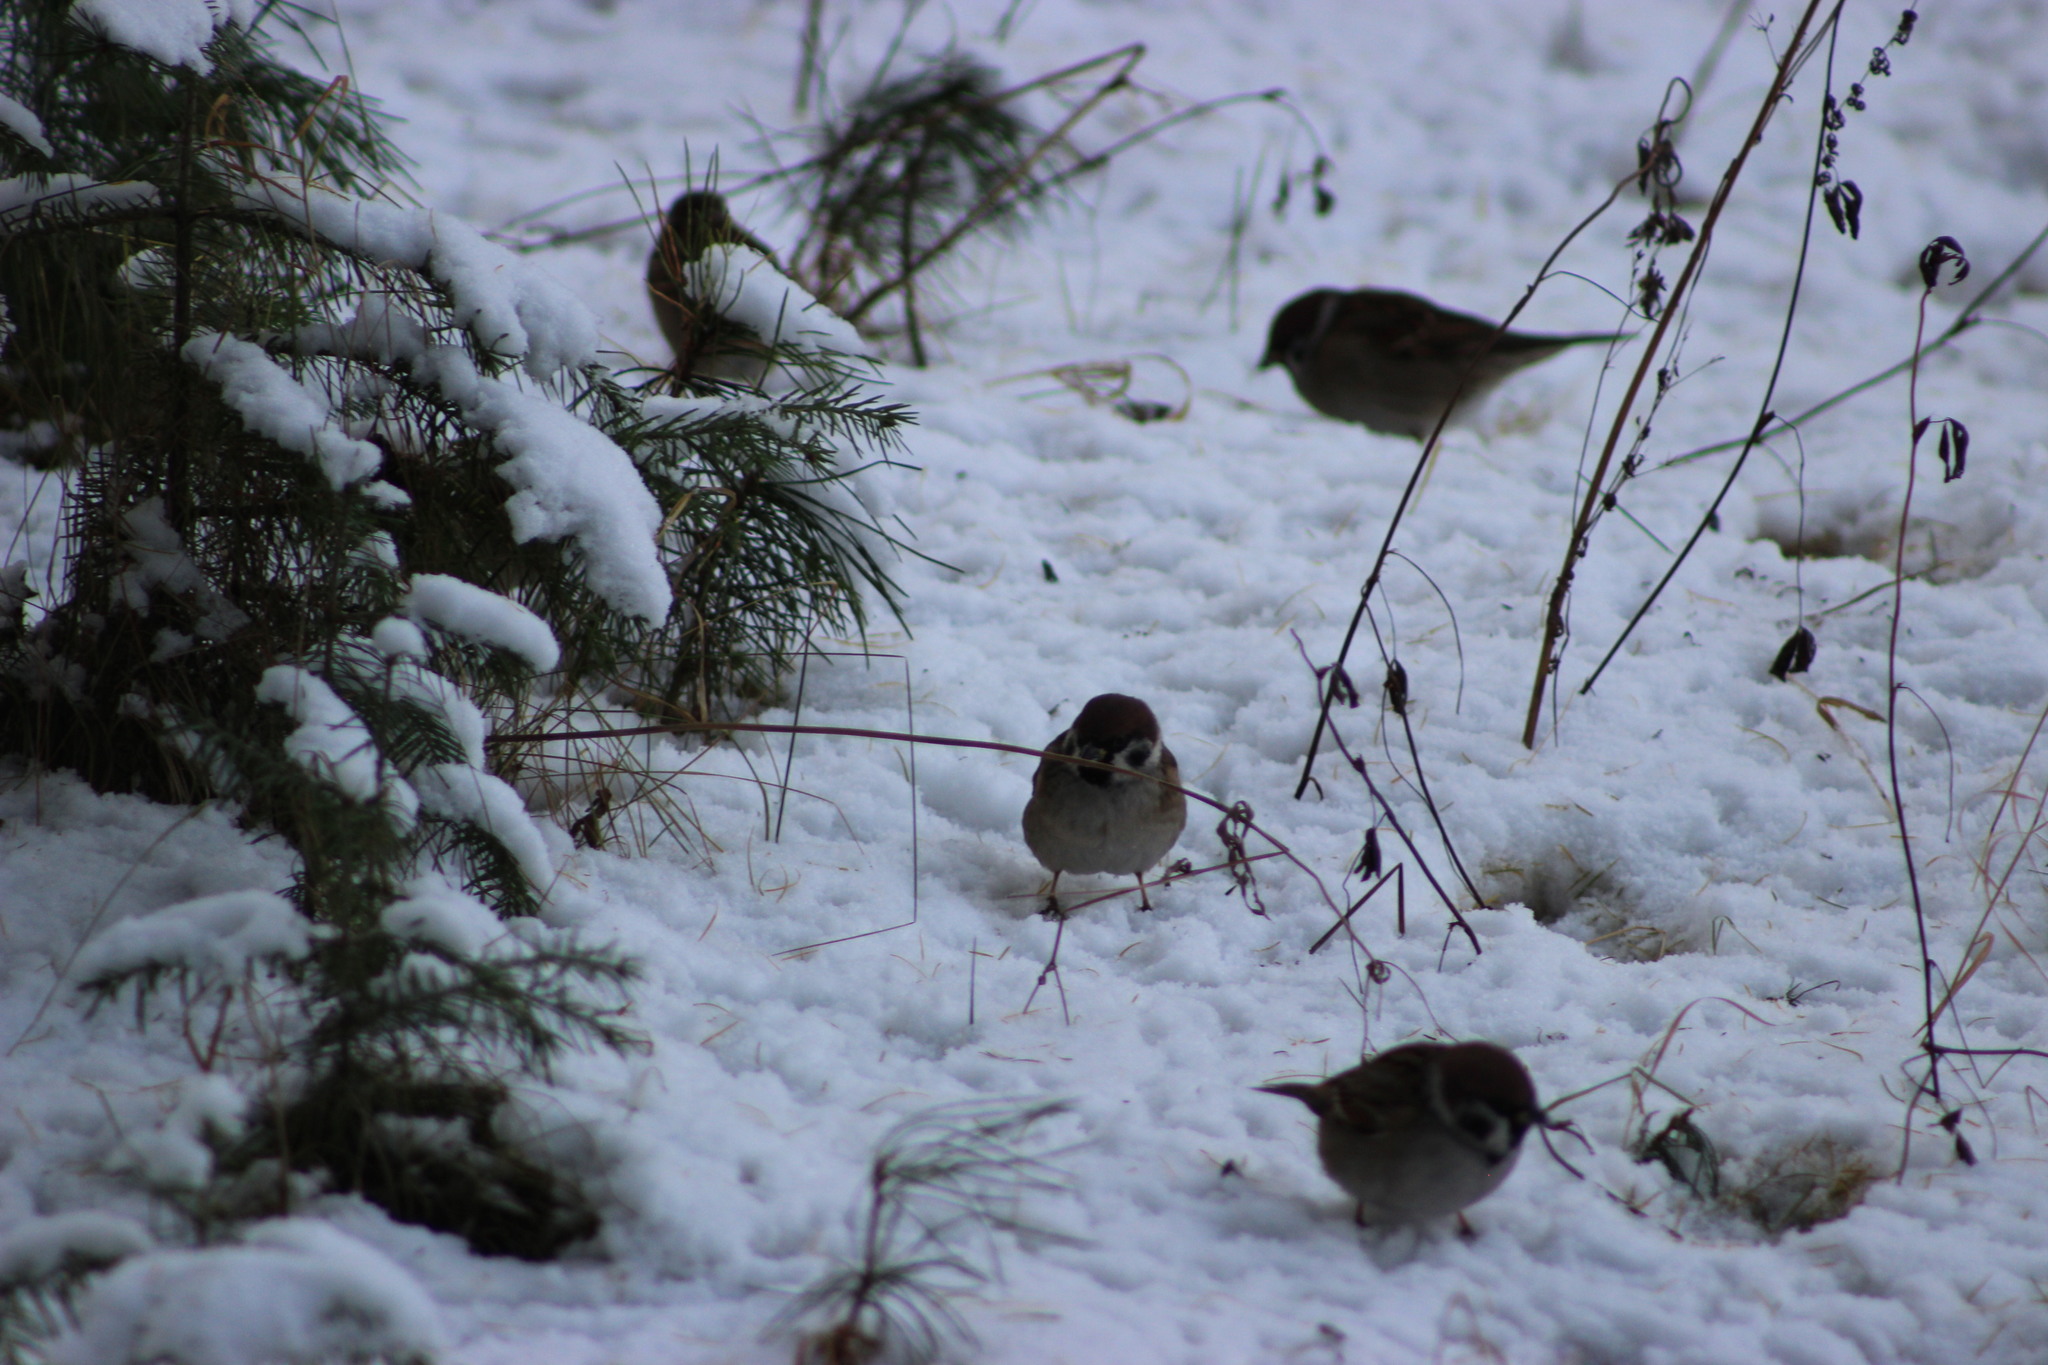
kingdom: Animalia
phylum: Chordata
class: Aves
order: Passeriformes
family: Passeridae
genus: Passer
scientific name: Passer montanus
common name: Eurasian tree sparrow
